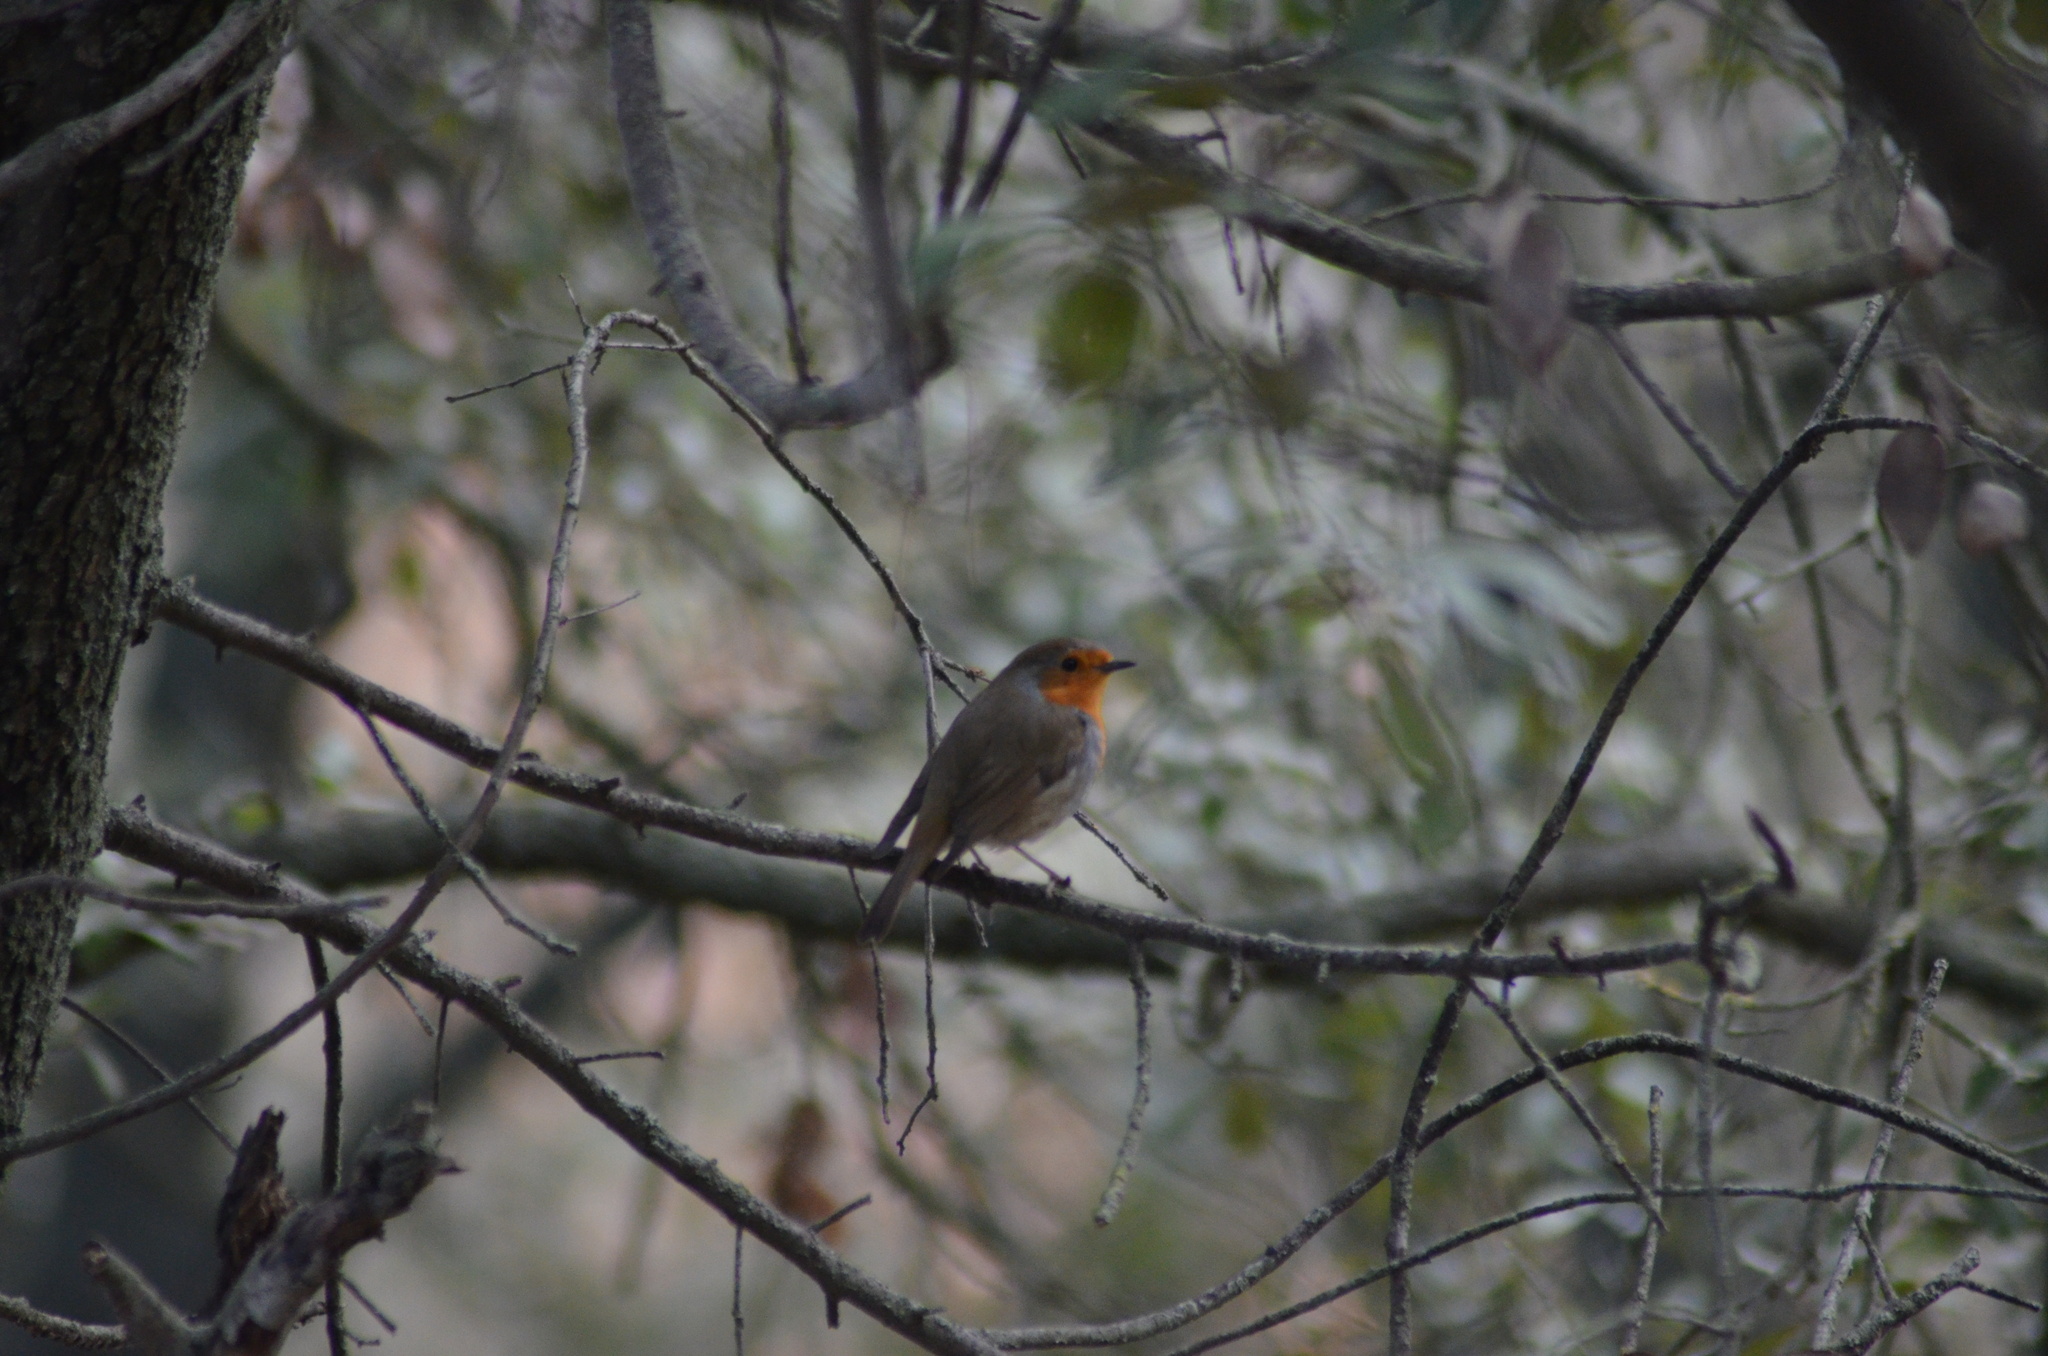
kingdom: Animalia
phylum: Chordata
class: Aves
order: Passeriformes
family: Muscicapidae
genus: Erithacus
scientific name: Erithacus rubecula
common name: European robin
